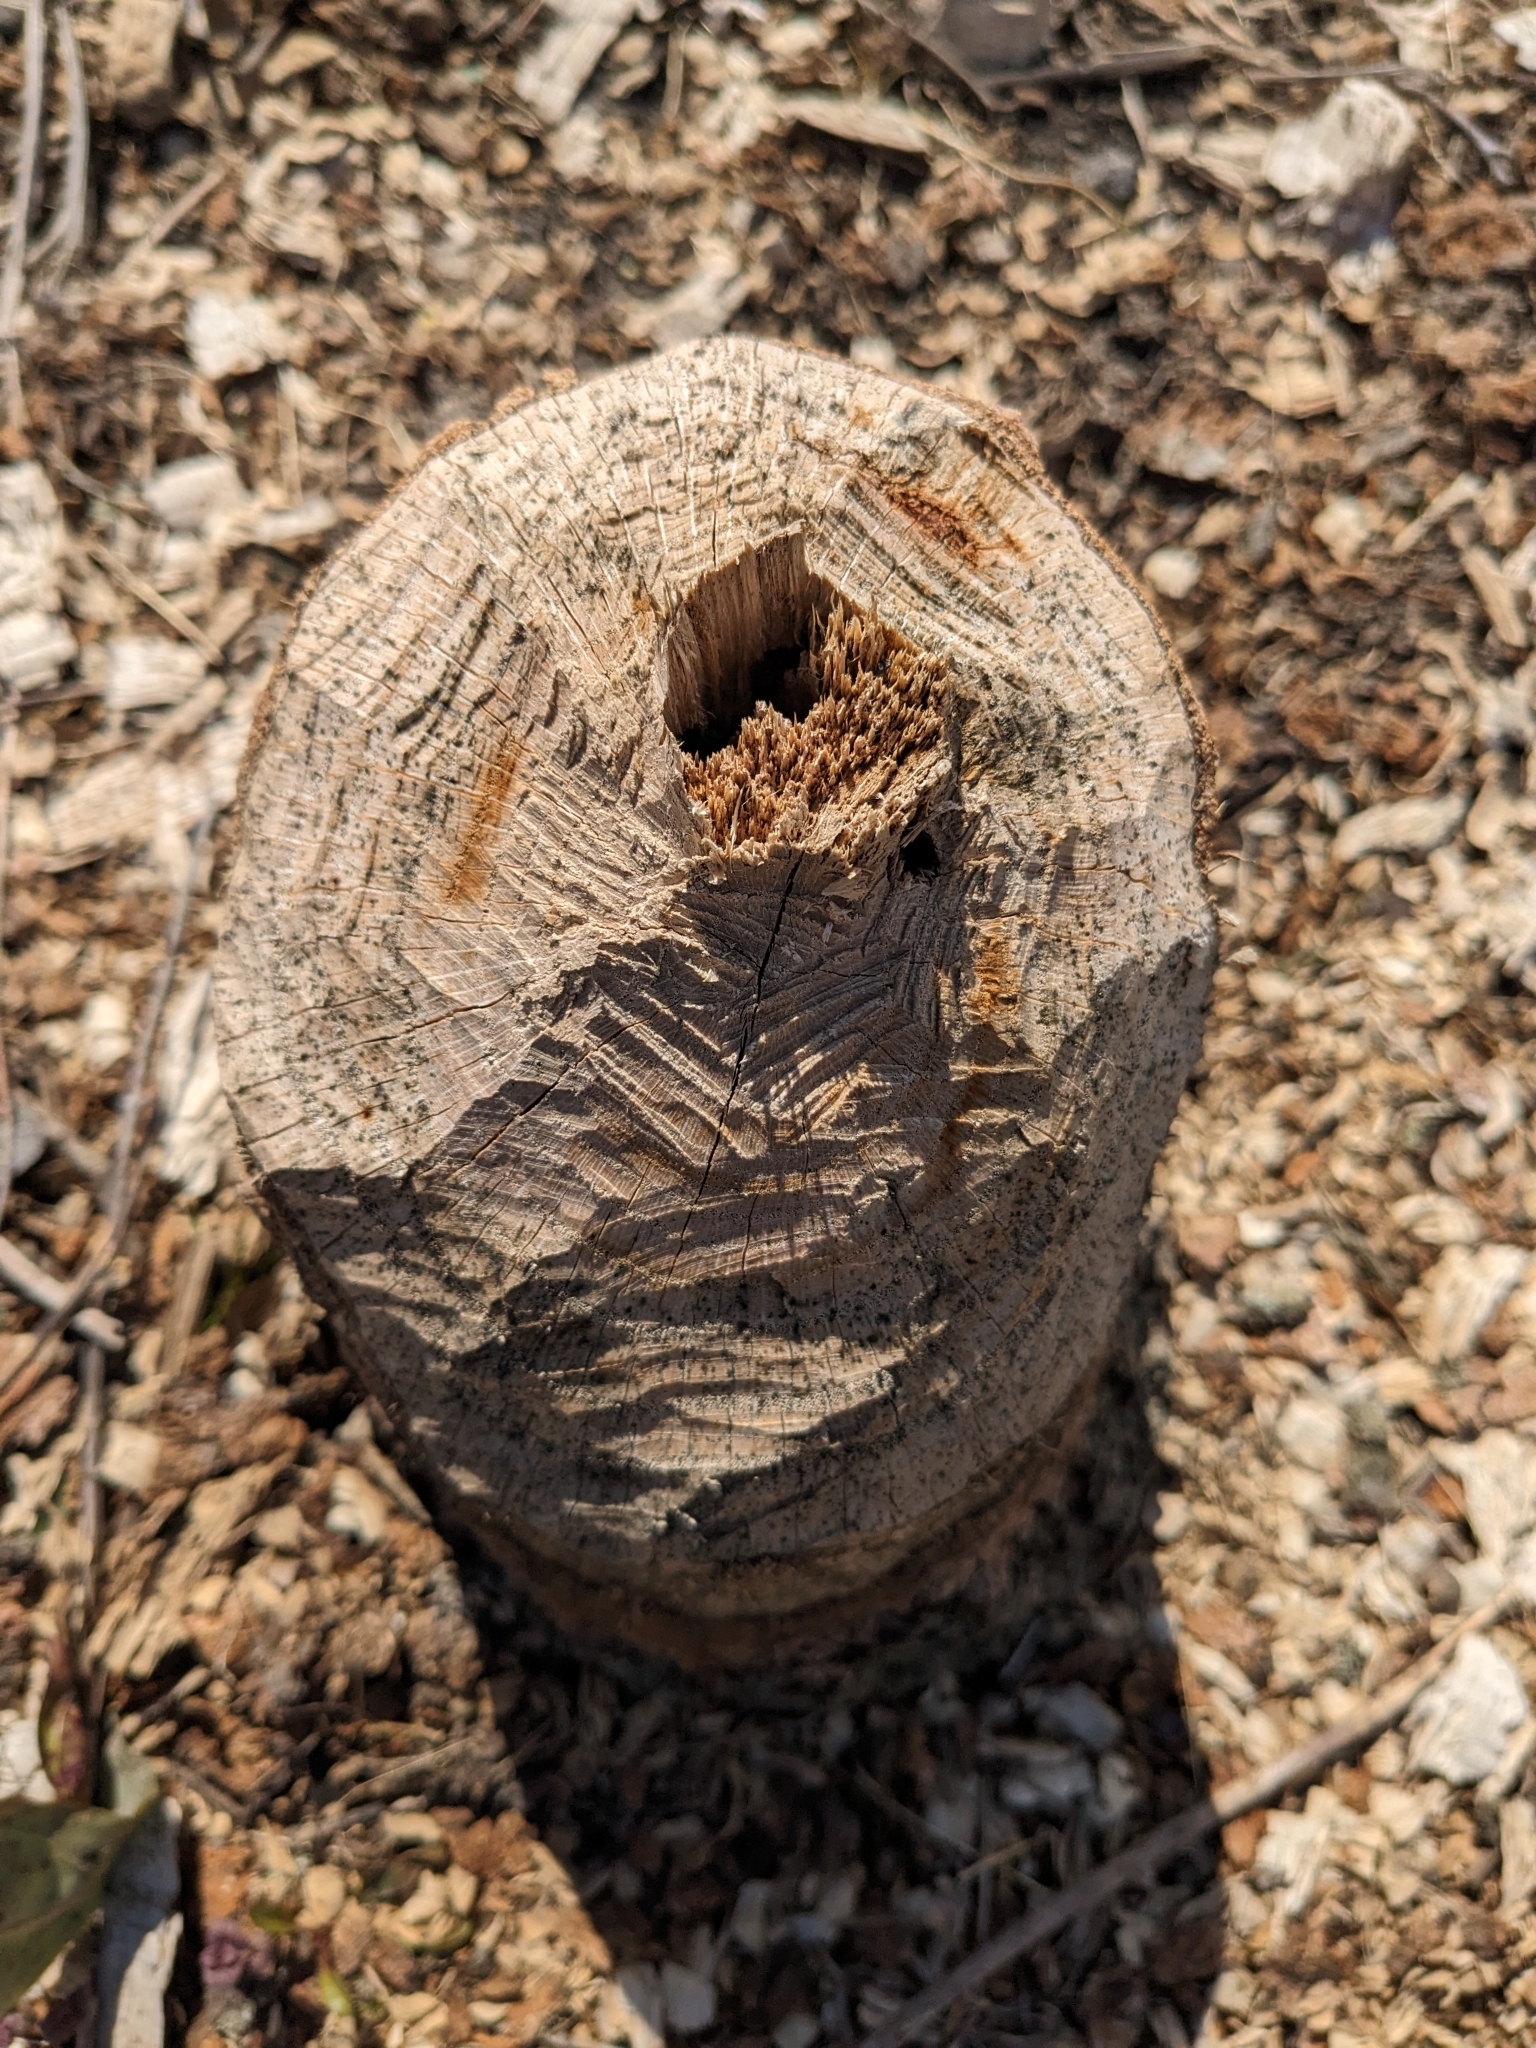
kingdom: Animalia
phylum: Chordata
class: Mammalia
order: Rodentia
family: Castoridae
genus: Castor
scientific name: Castor canadensis
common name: American beaver
